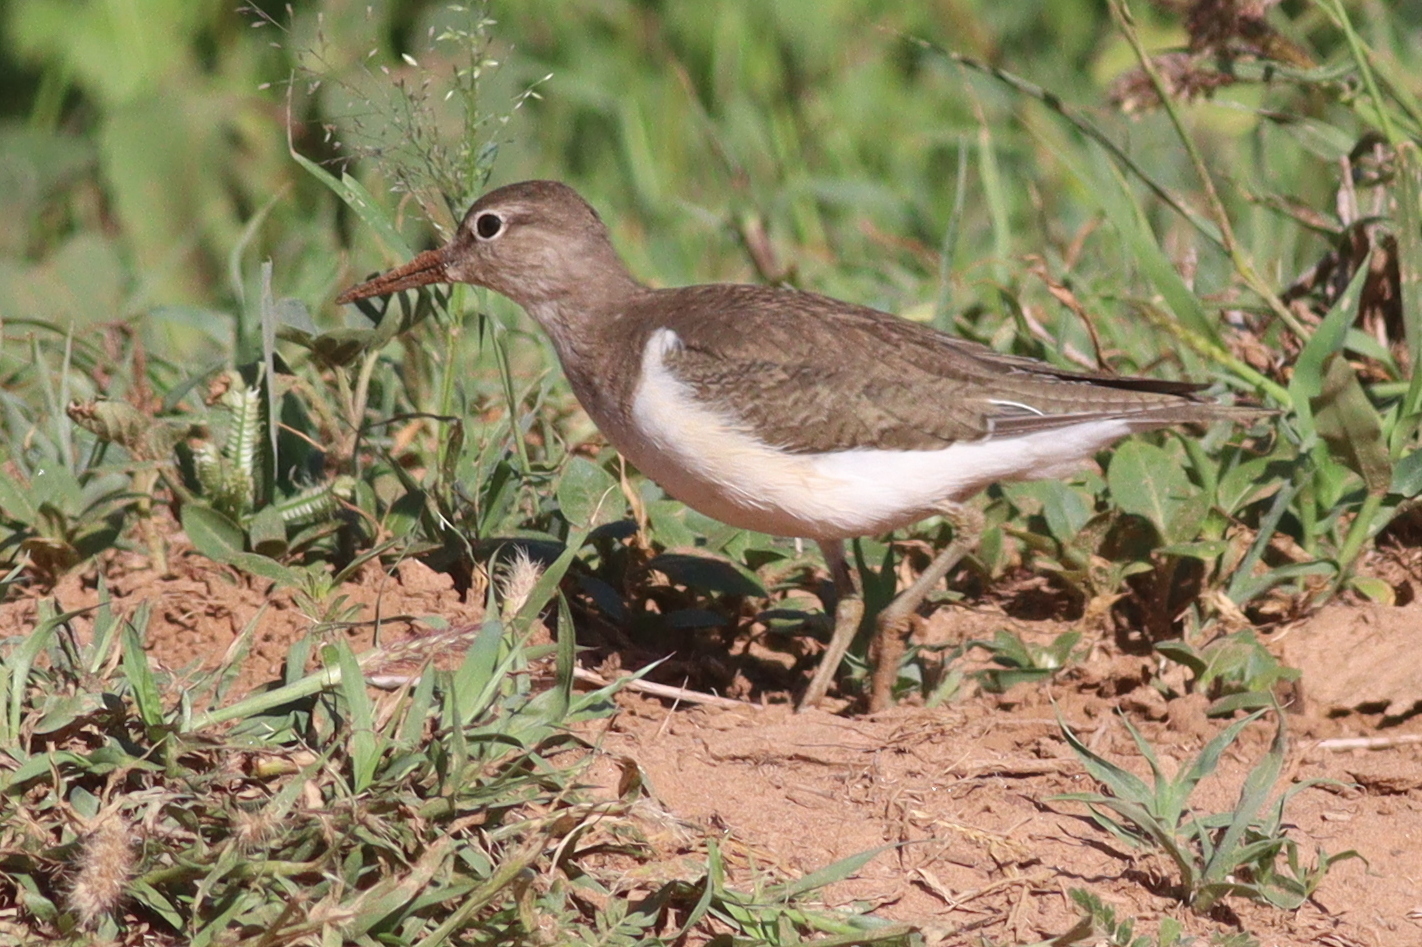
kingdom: Animalia
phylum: Chordata
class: Aves
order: Charadriiformes
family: Scolopacidae
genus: Actitis
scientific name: Actitis hypoleucos
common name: Common sandpiper
